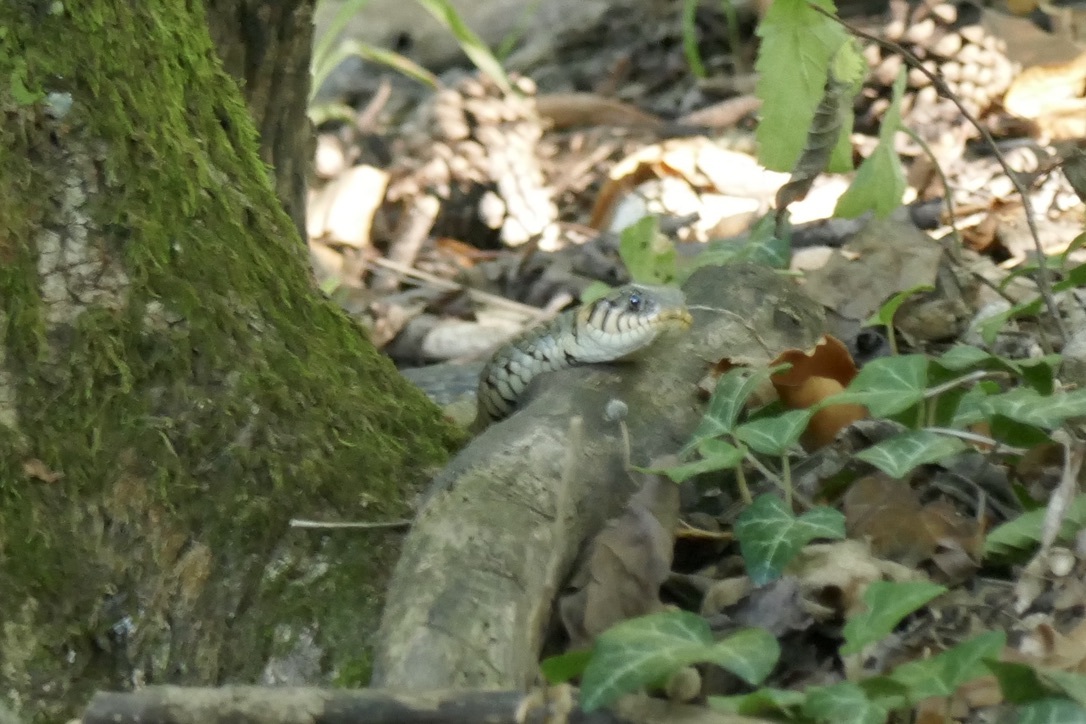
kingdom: Animalia
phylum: Chordata
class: Squamata
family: Colubridae
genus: Natrix
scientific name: Natrix natrix
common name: Grass snake
